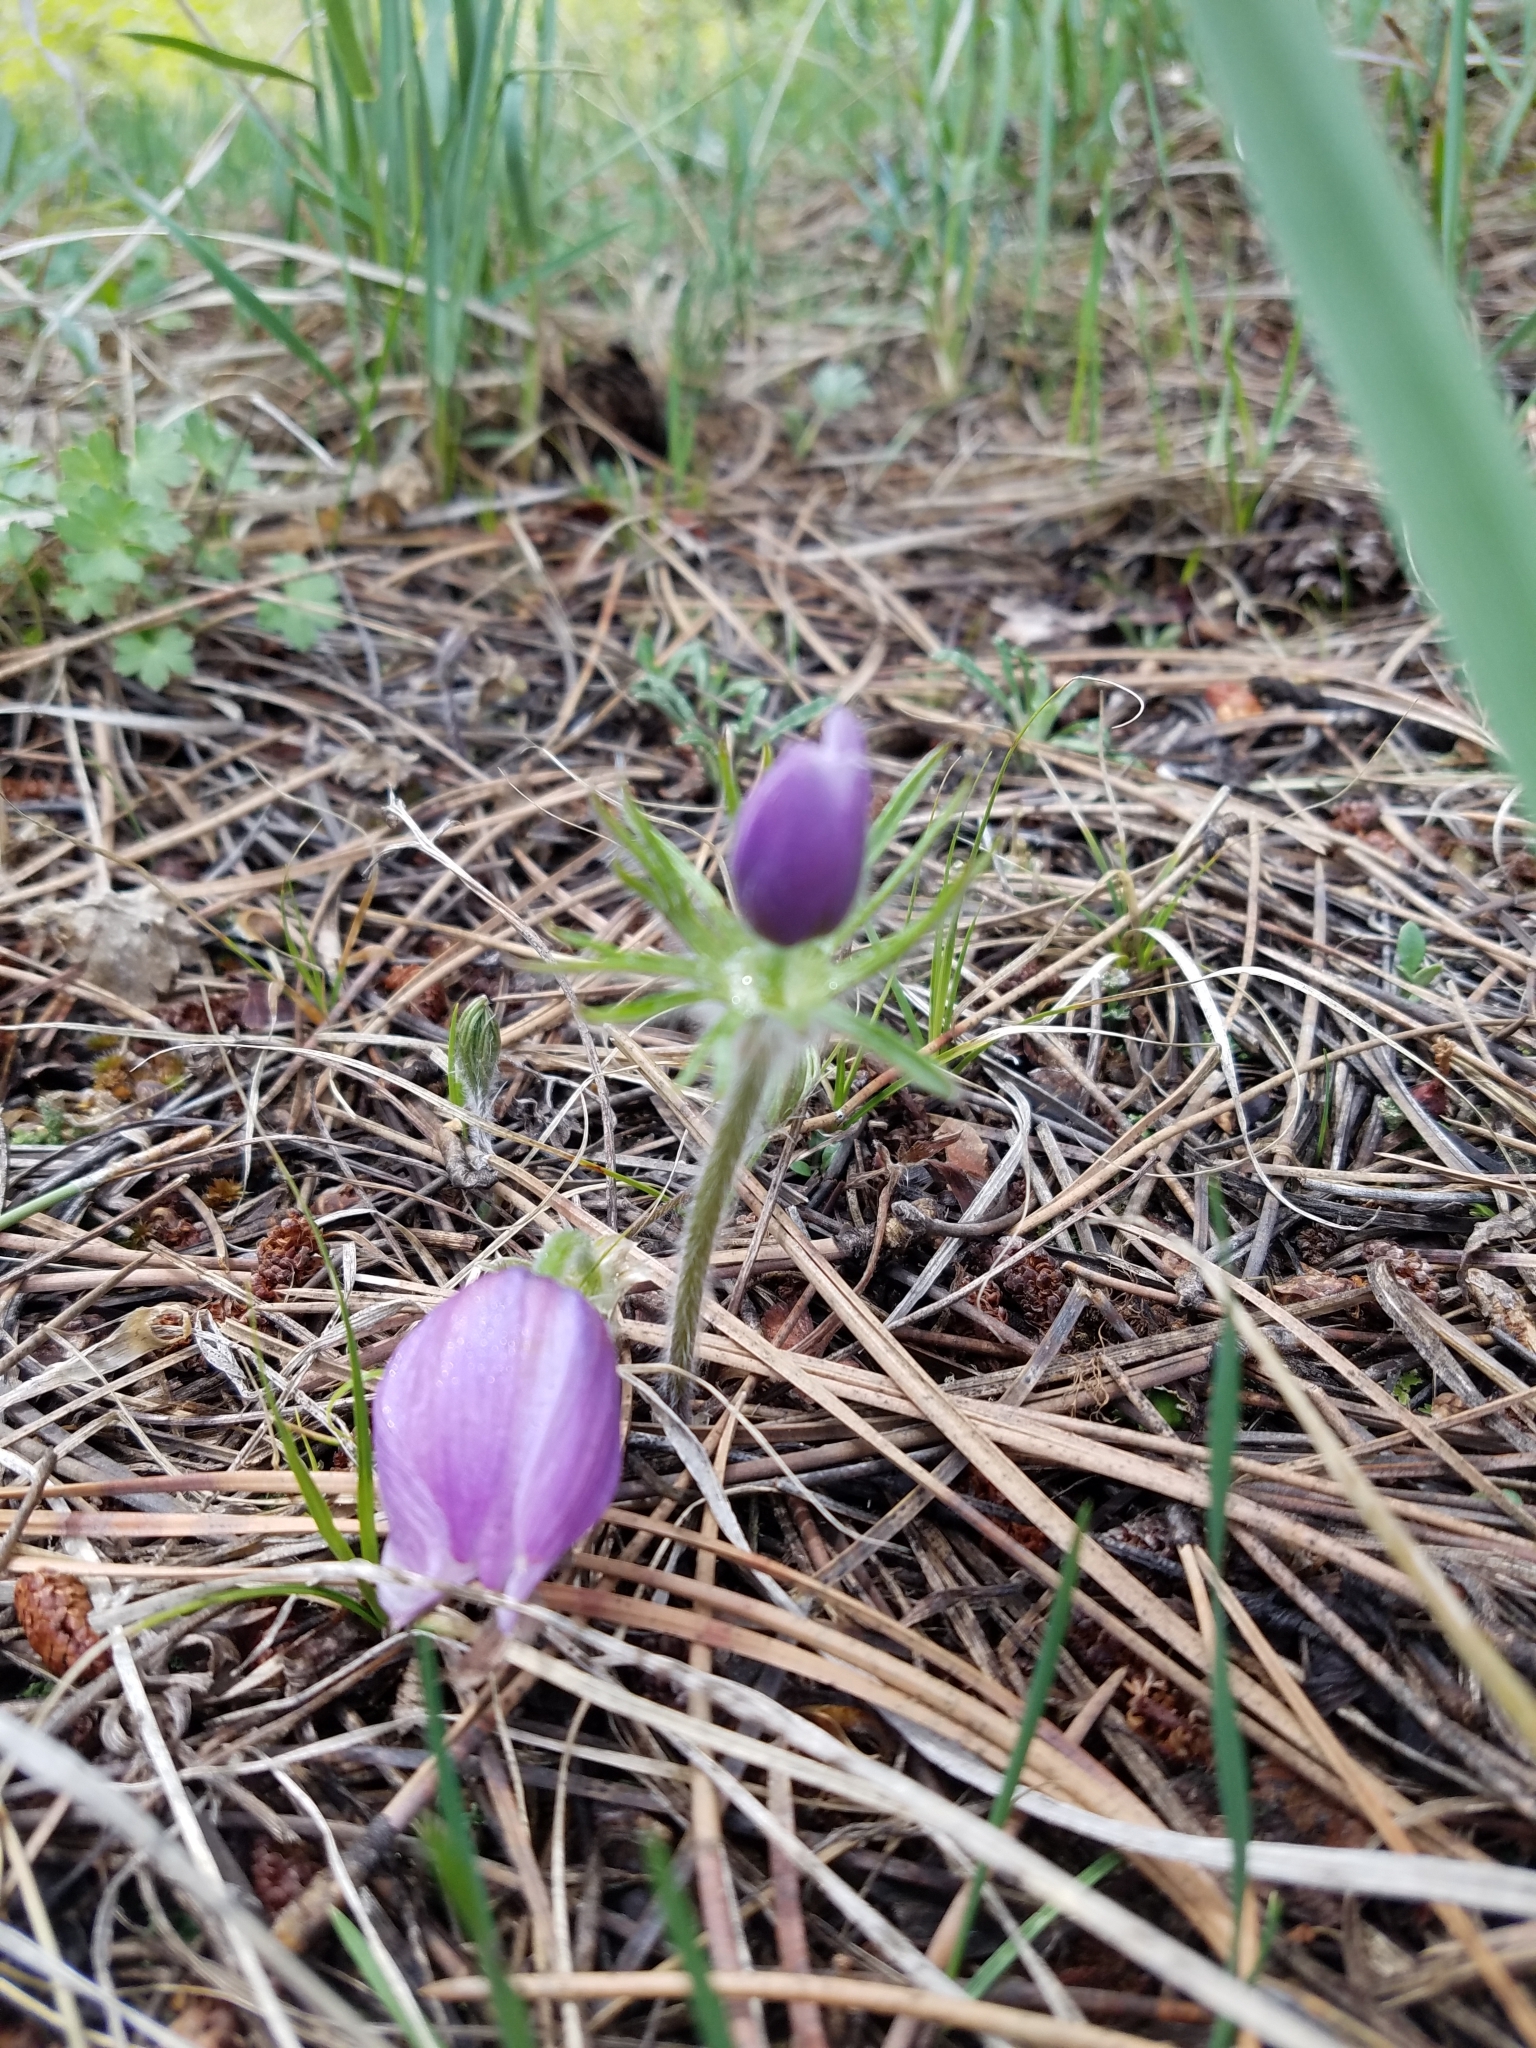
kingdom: Plantae
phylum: Tracheophyta
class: Magnoliopsida
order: Ranunculales
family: Ranunculaceae
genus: Pulsatilla
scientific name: Pulsatilla nuttalliana
